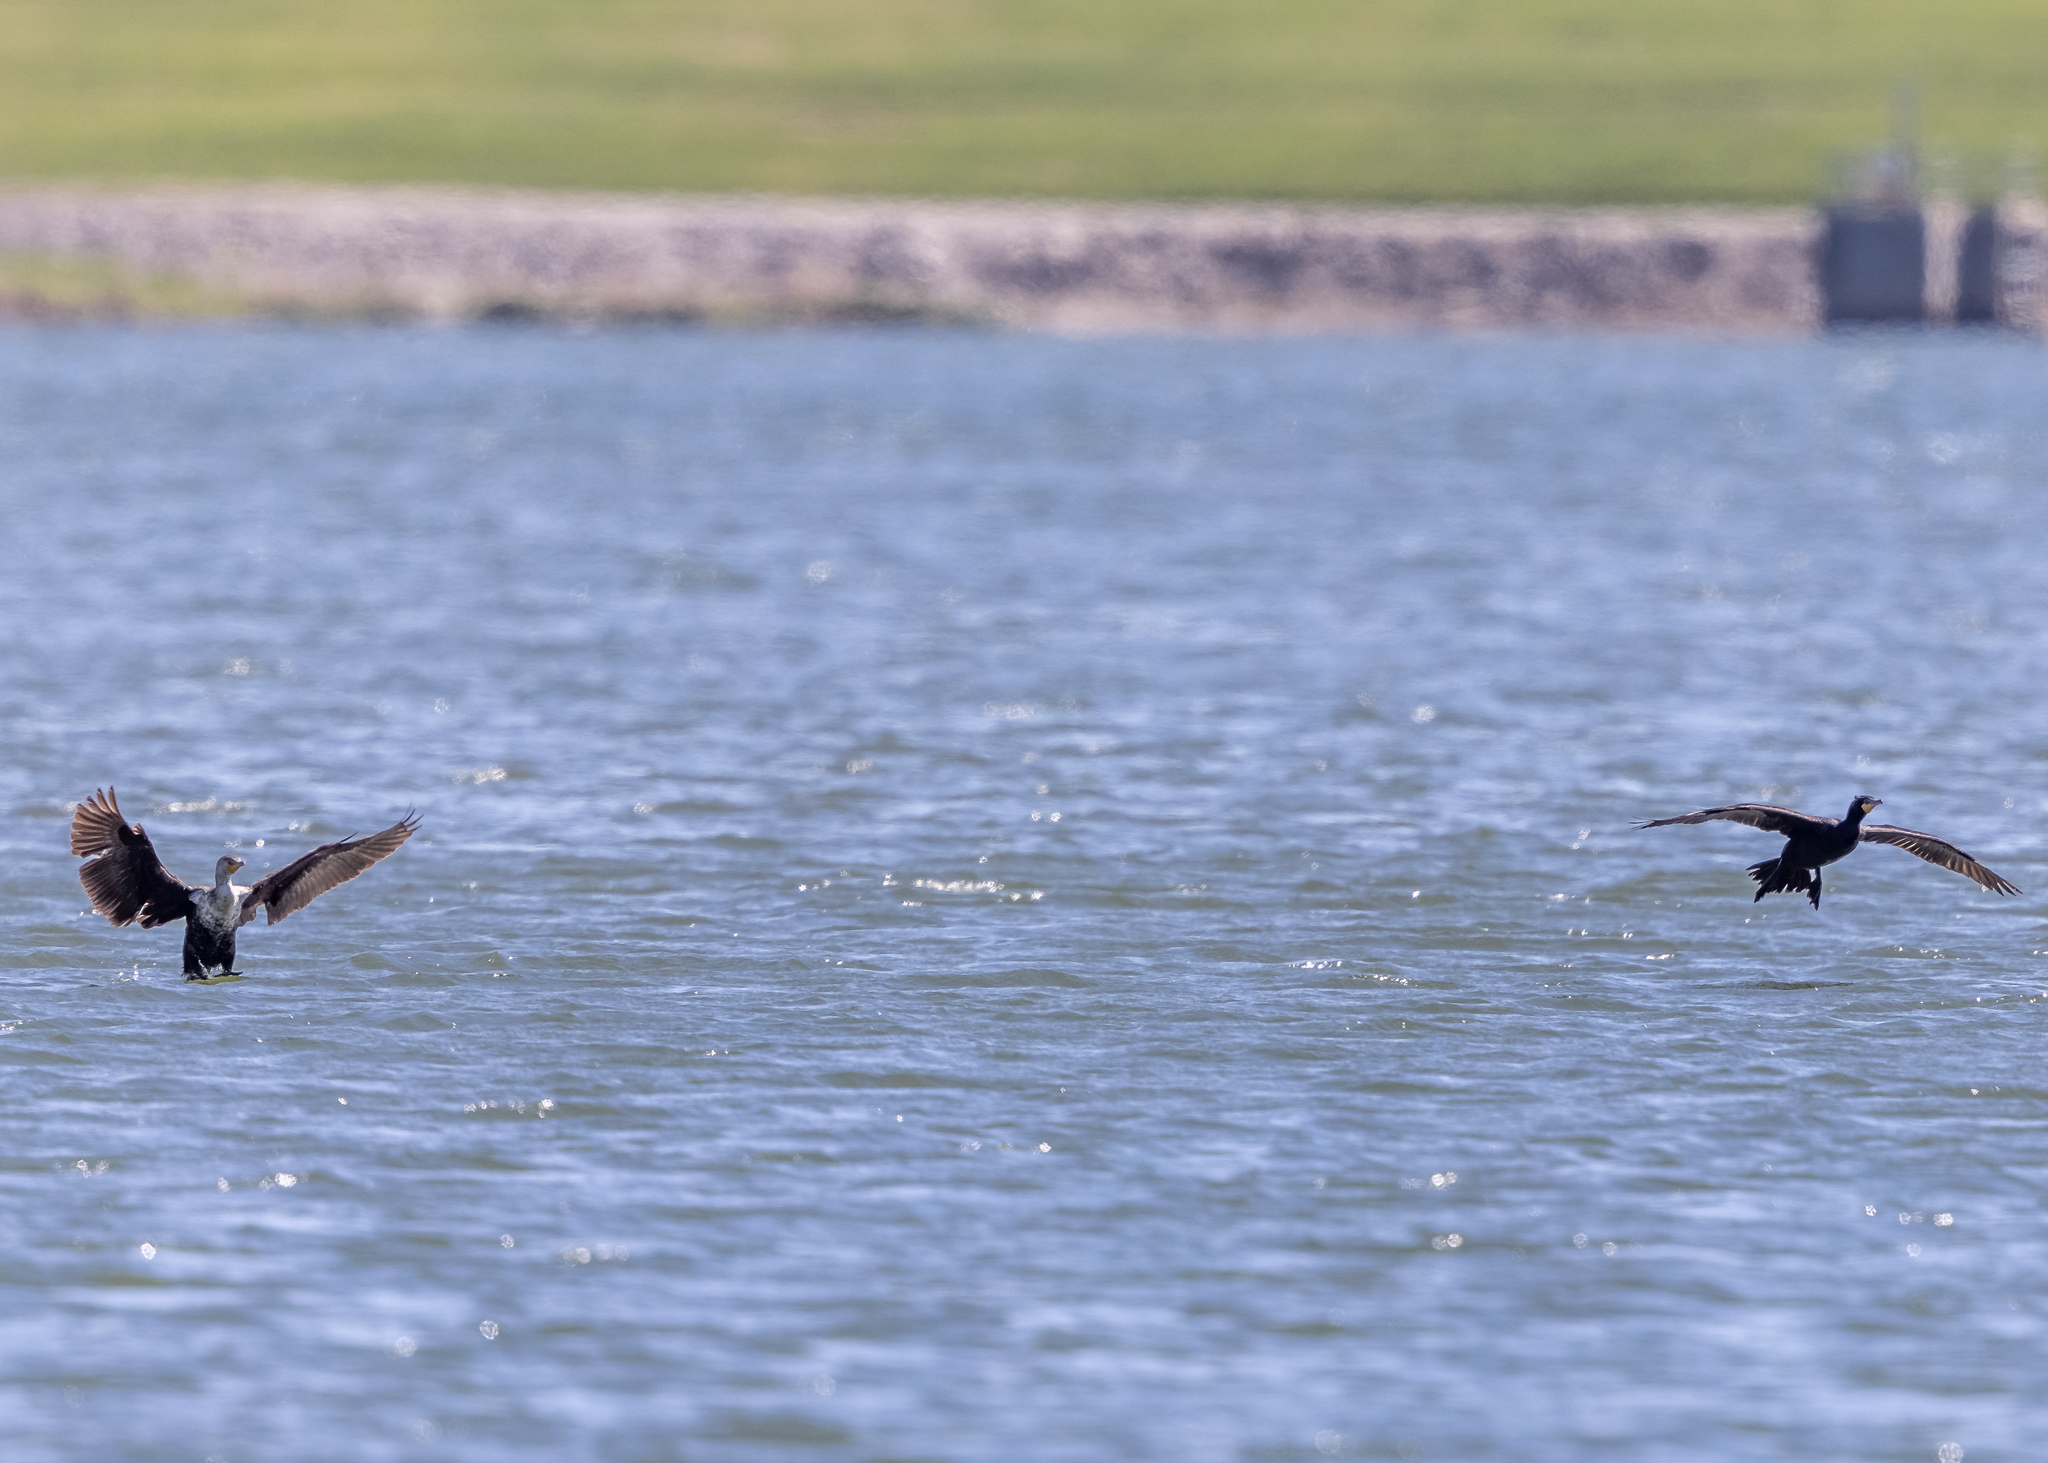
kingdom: Animalia
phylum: Chordata
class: Aves
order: Suliformes
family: Phalacrocoracidae
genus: Phalacrocorax
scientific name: Phalacrocorax auritus
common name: Double-crested cormorant
